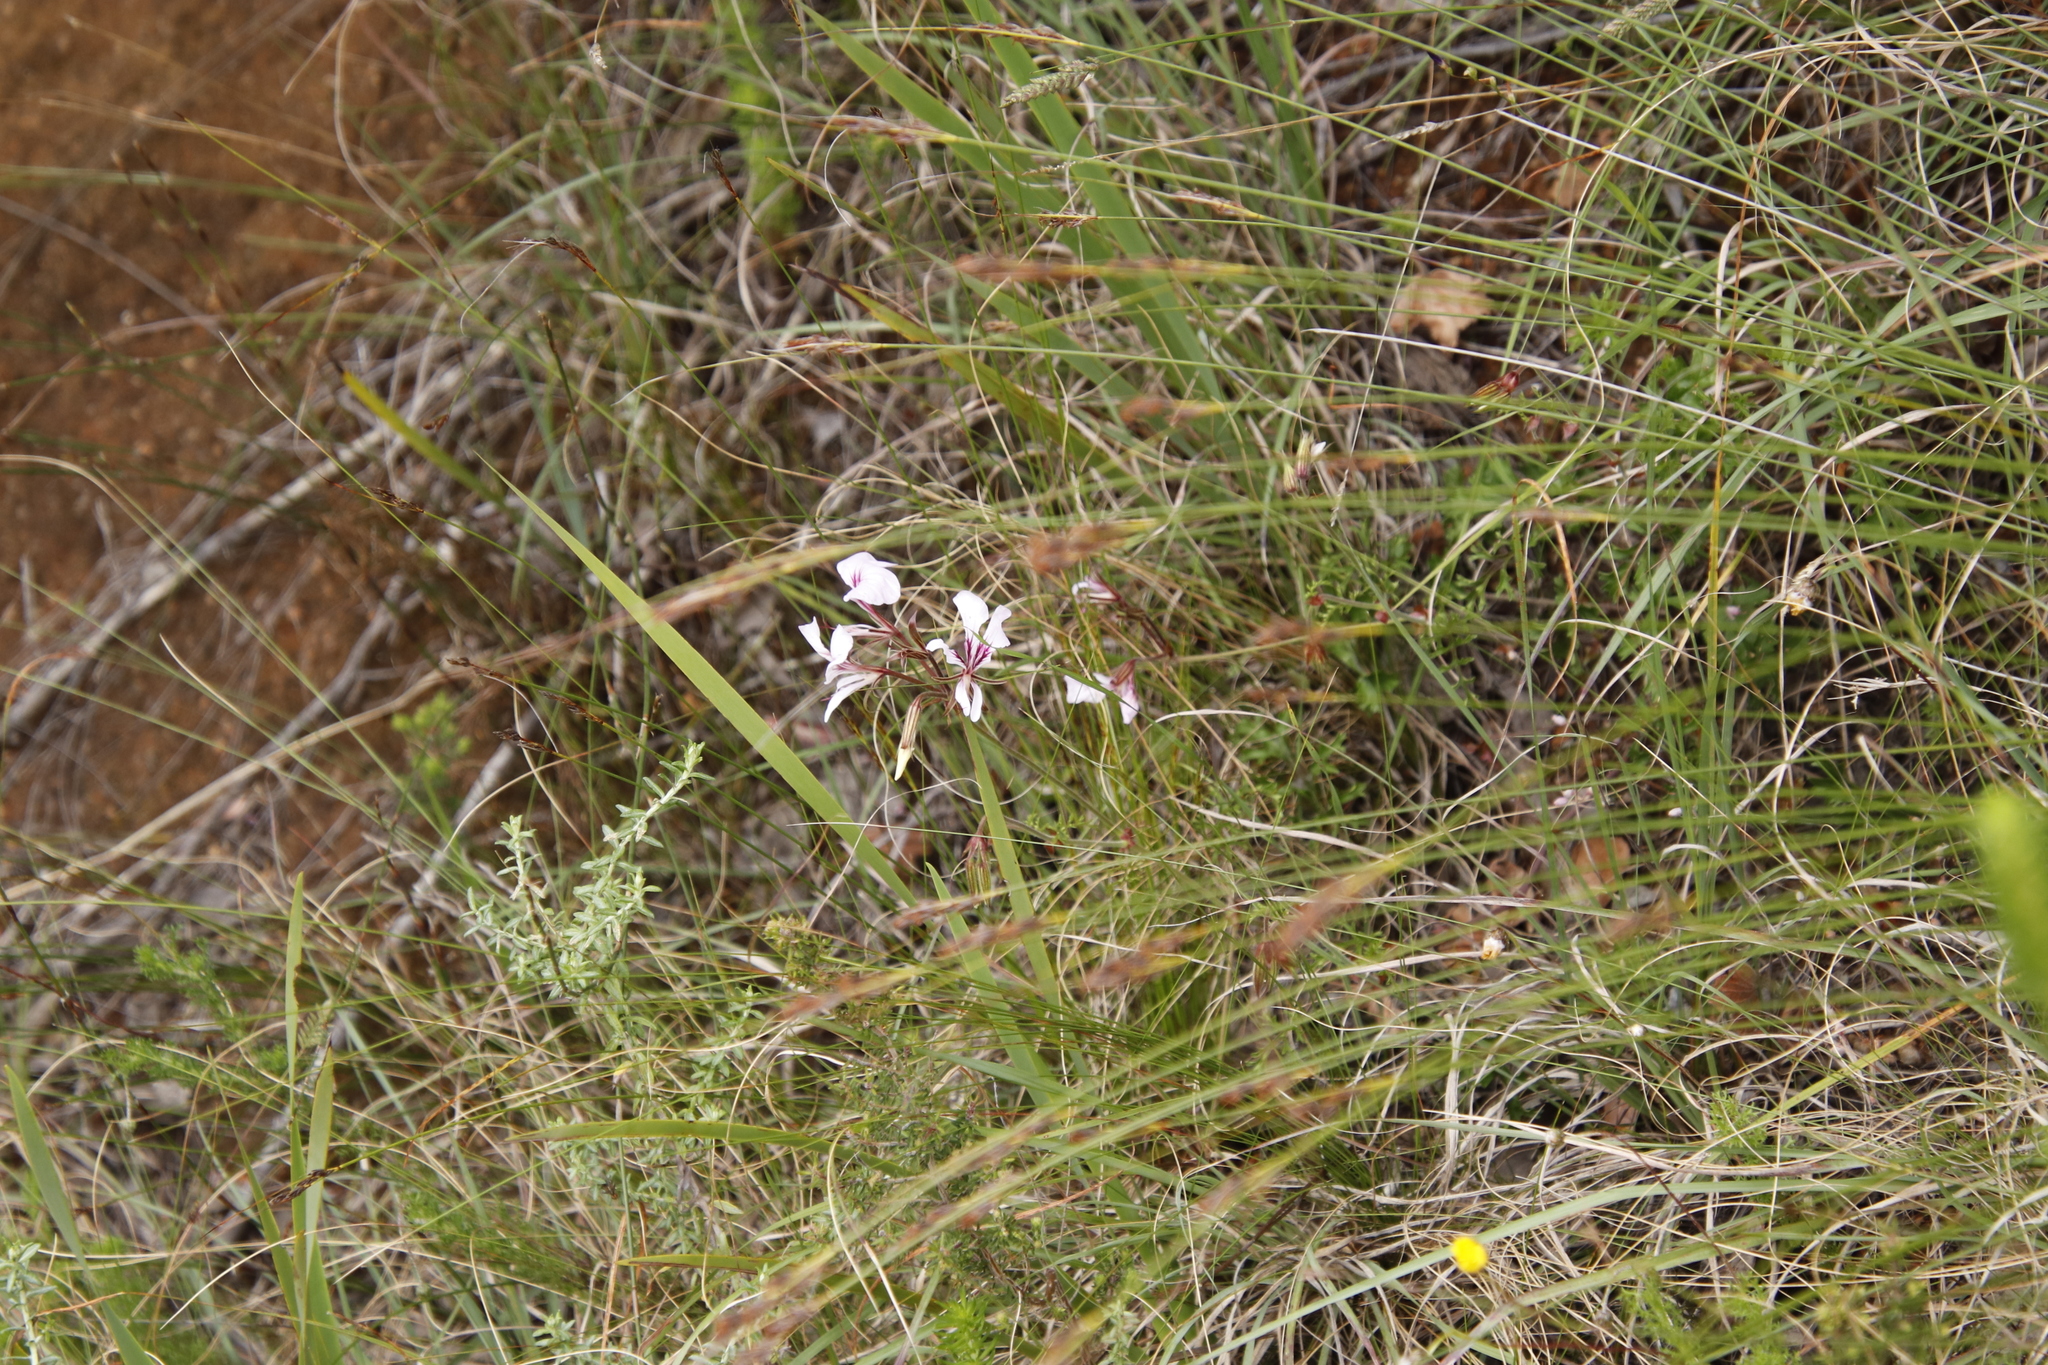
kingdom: Plantae
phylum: Tracheophyta
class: Magnoliopsida
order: Geraniales
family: Geraniaceae
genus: Pelargonium
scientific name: Pelargonium longicaule
